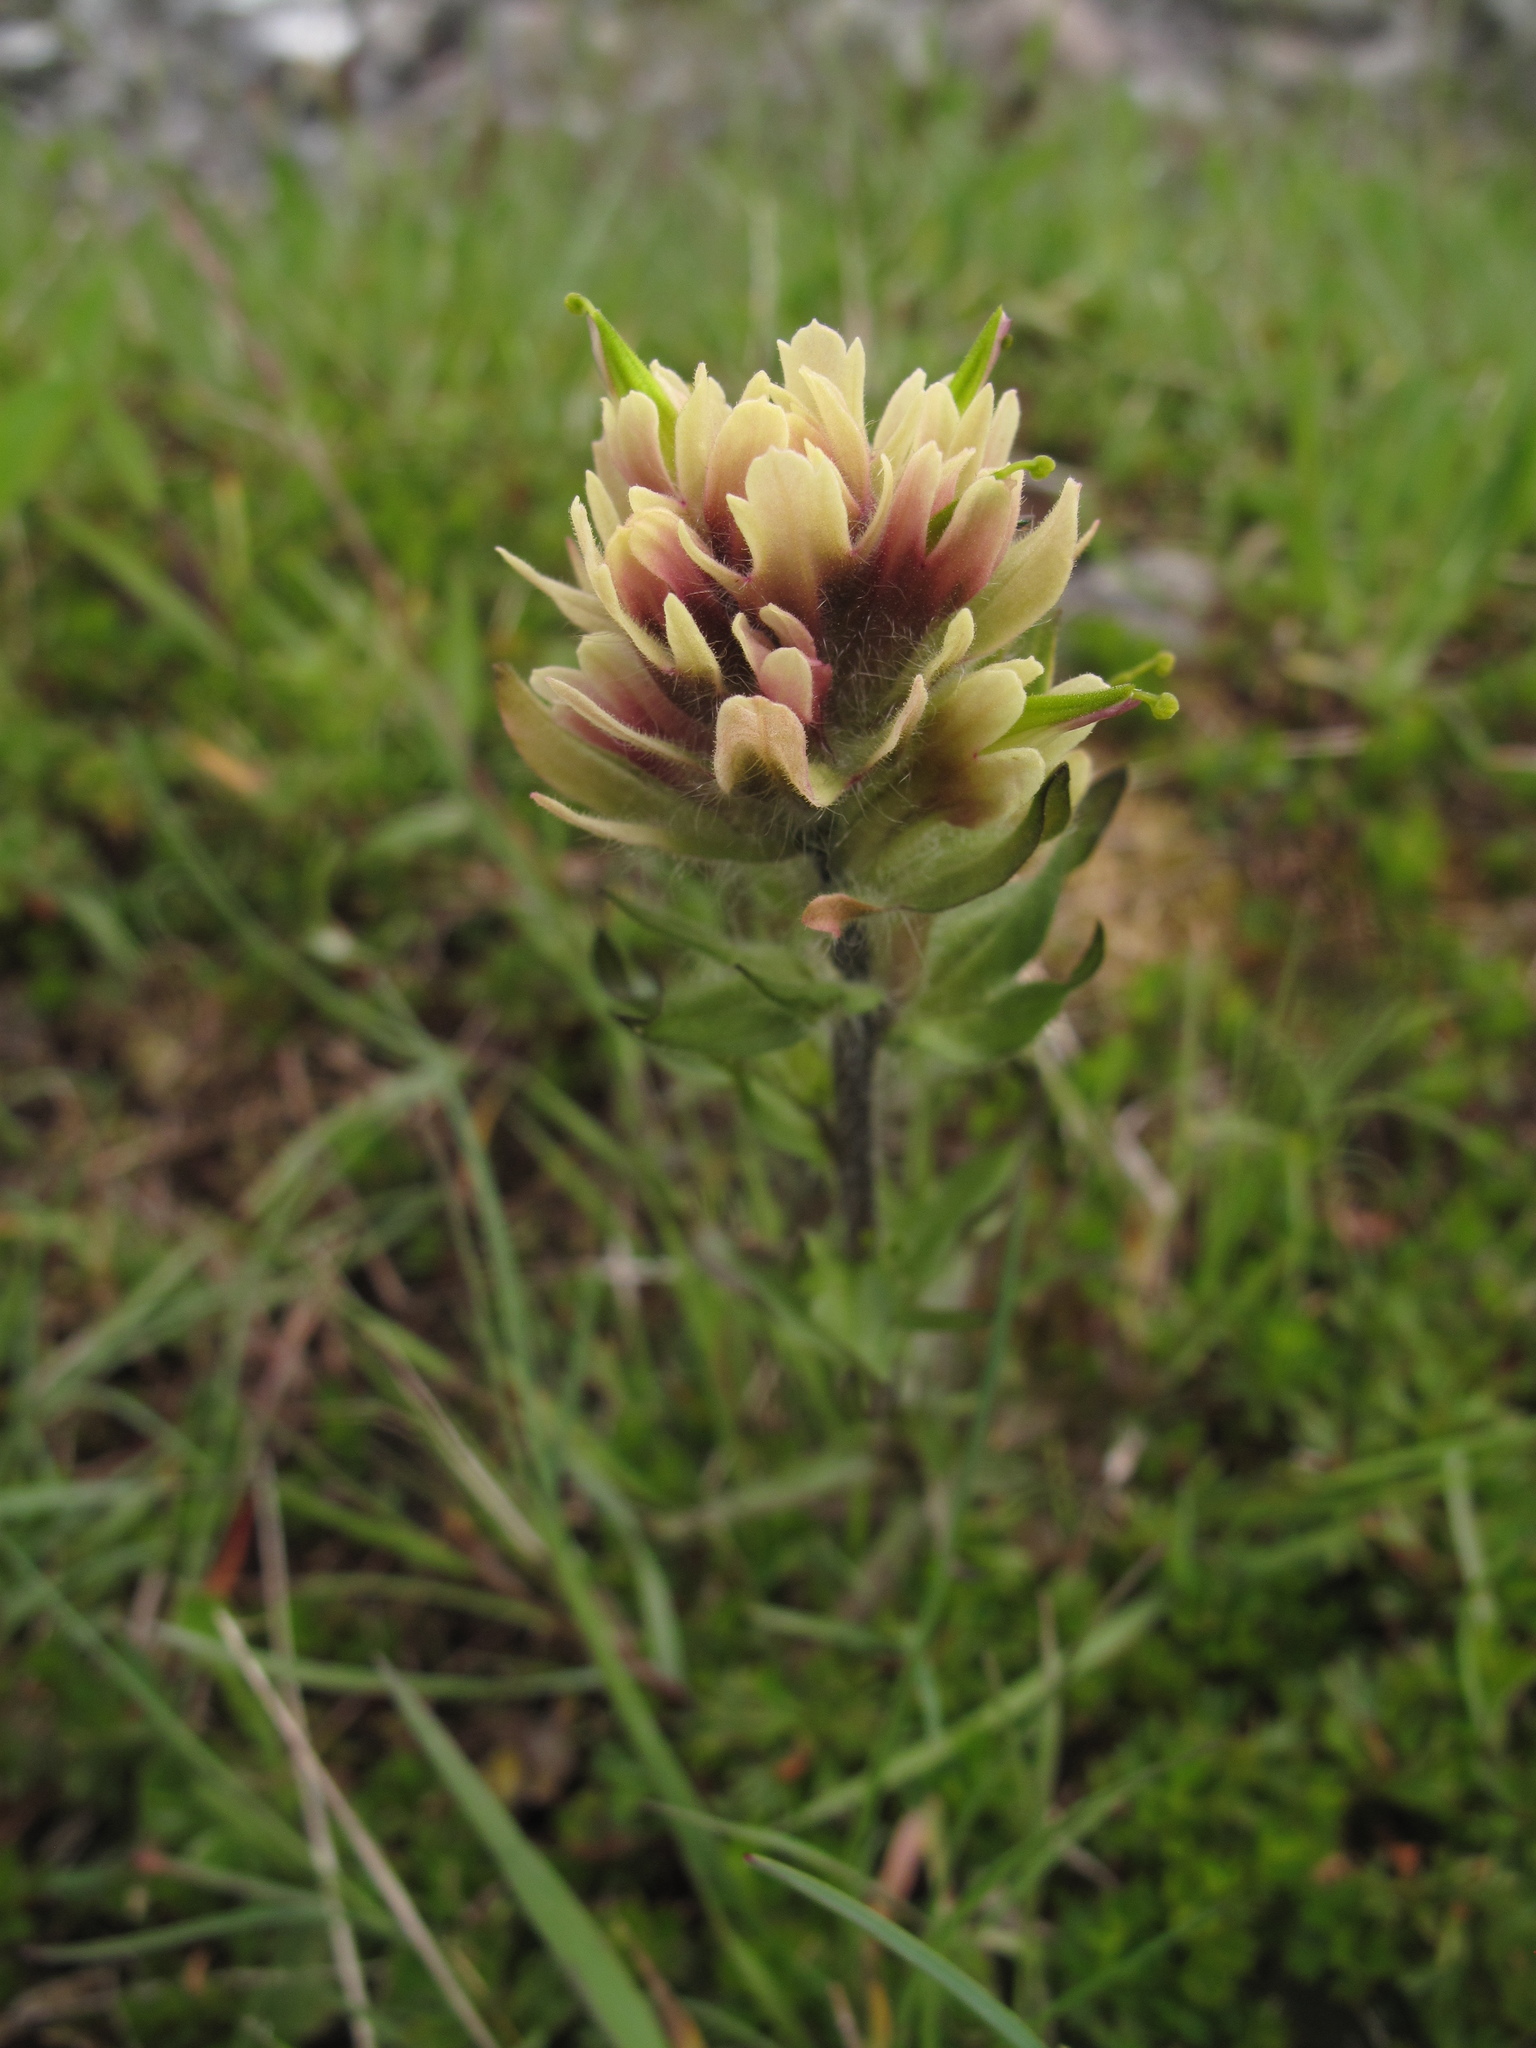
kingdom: Plantae
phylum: Tracheophyta
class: Magnoliopsida
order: Lamiales
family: Orobanchaceae
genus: Castilleja
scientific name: Castilleja parviflora
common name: Mountain paintbrush
